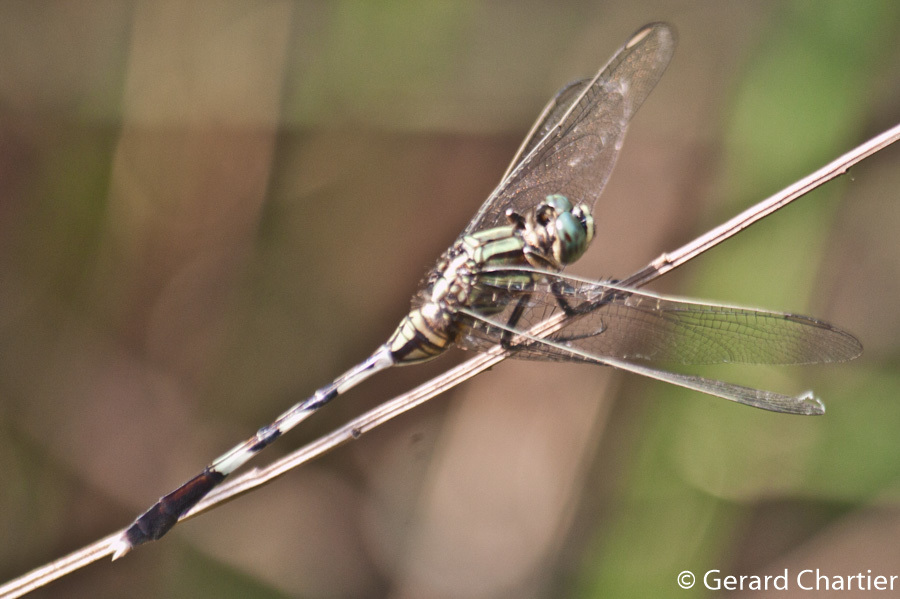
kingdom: Animalia
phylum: Arthropoda
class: Insecta
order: Odonata
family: Libellulidae
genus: Orthetrum
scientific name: Orthetrum sabina
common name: Slender skimmer
